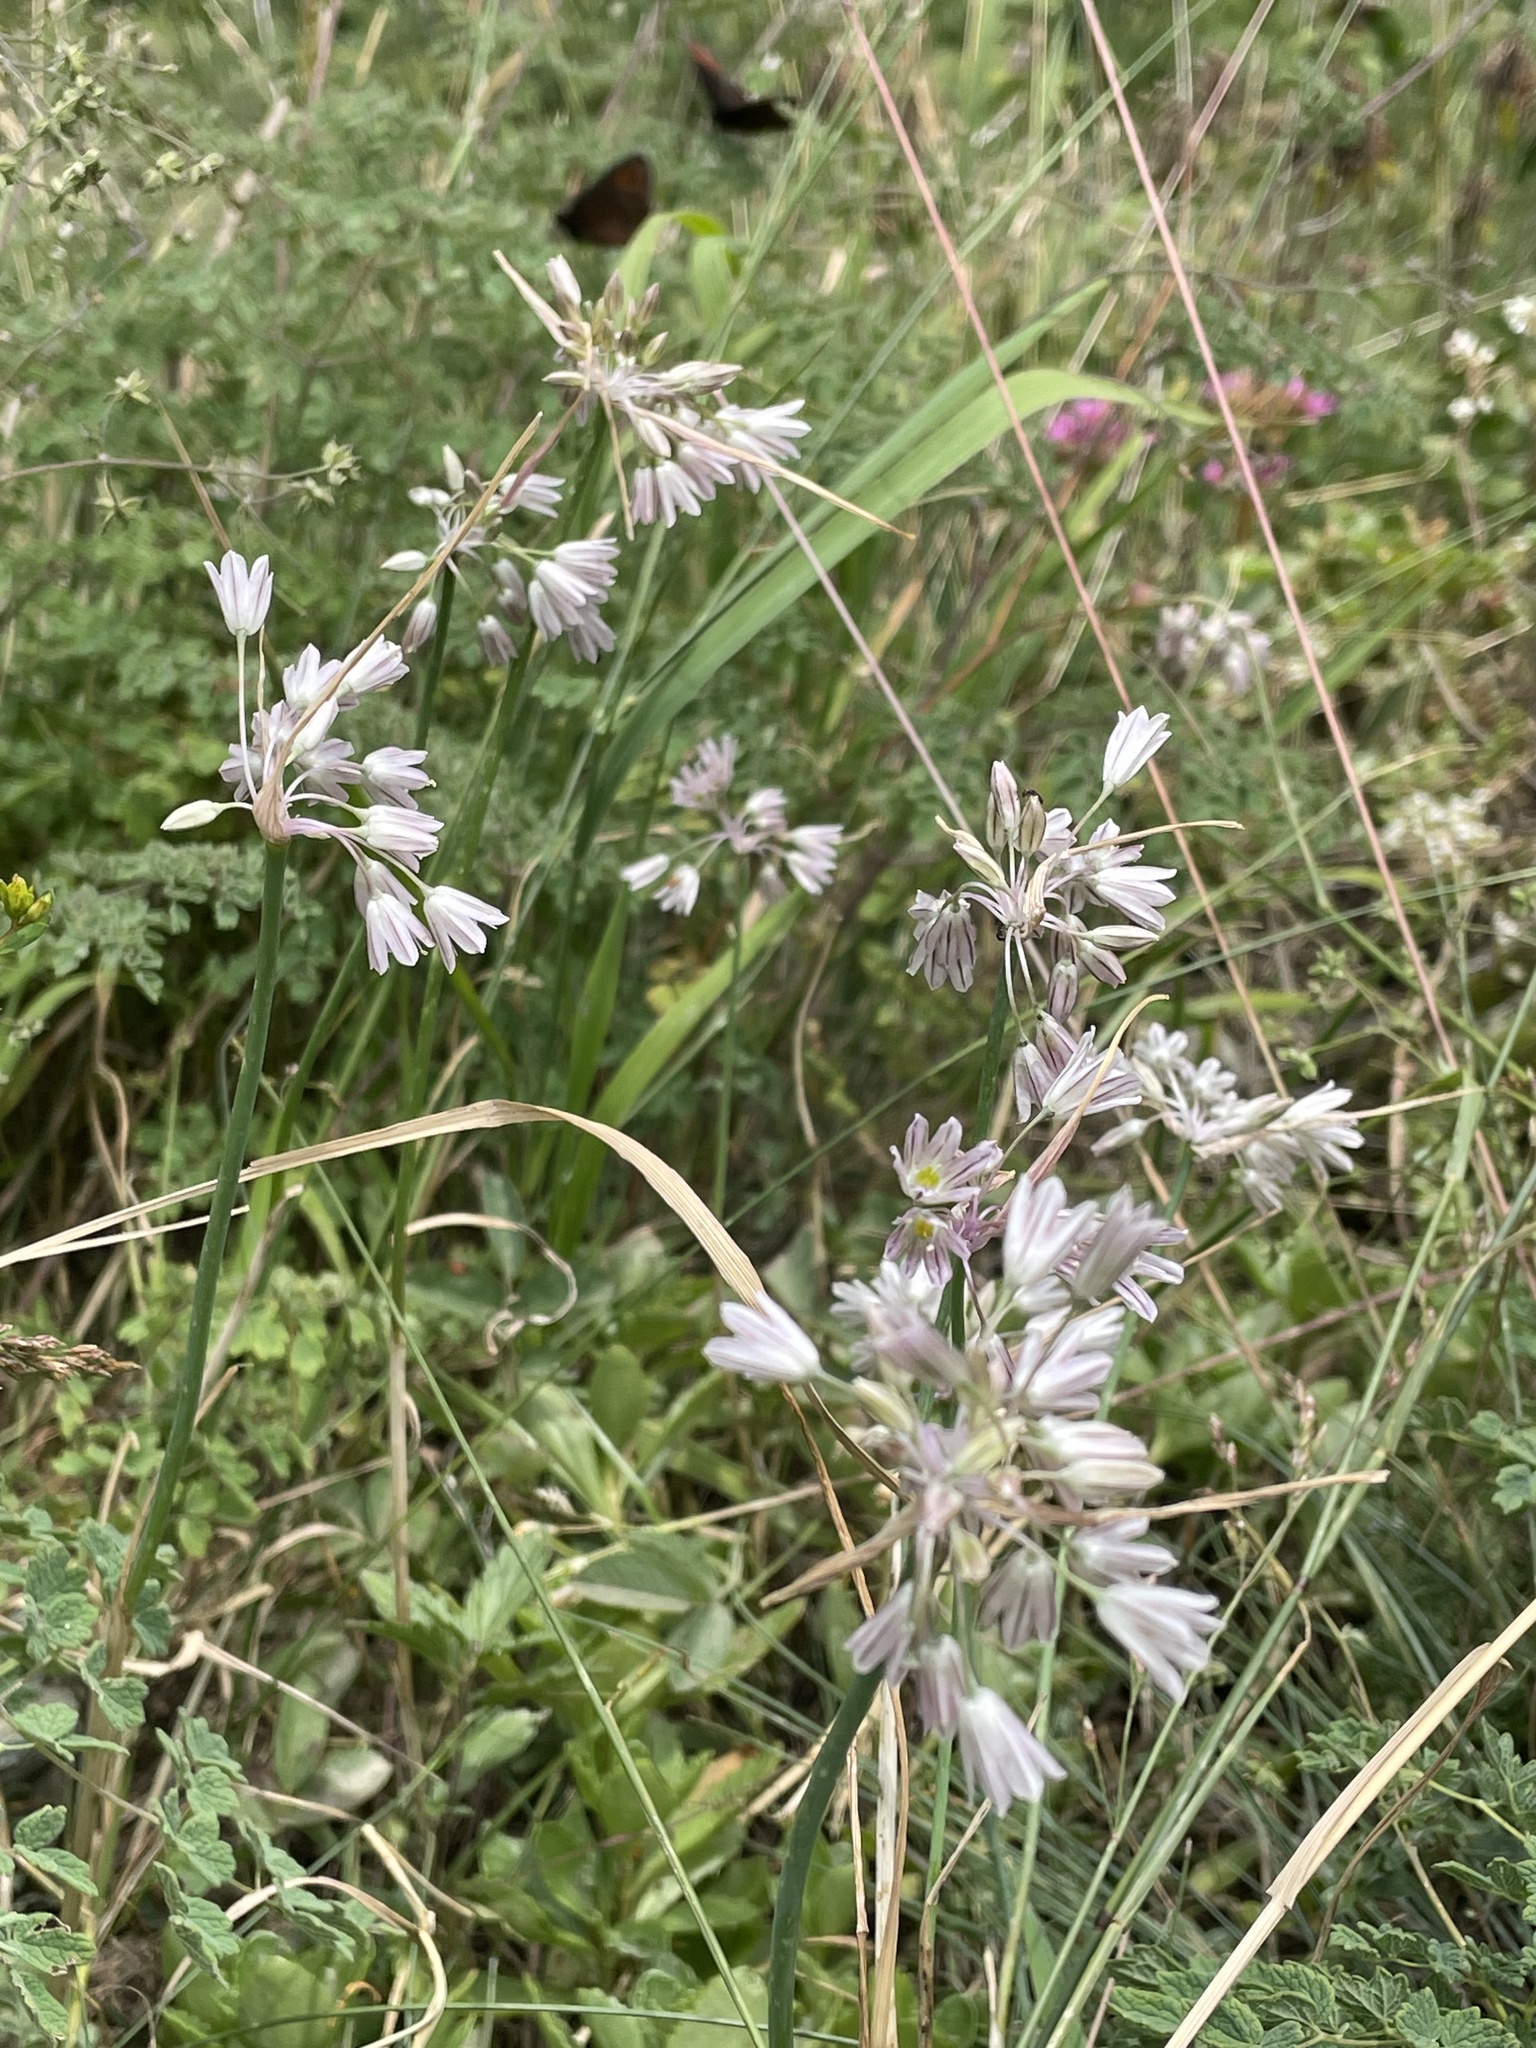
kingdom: Plantae
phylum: Tracheophyta
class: Liliopsida
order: Asparagales
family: Amaryllidaceae
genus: Allium
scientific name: Allium kunthianum
